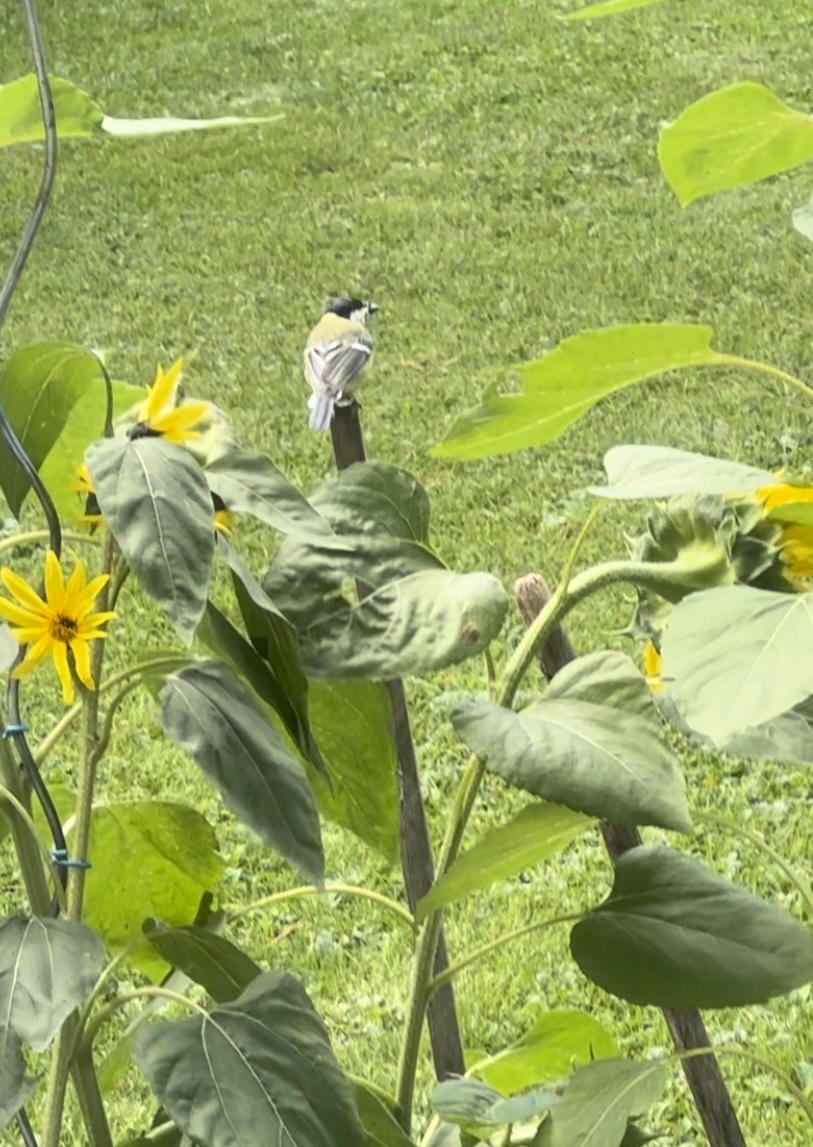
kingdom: Animalia
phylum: Chordata
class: Aves
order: Passeriformes
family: Paridae
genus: Parus
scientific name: Parus major
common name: Great tit
